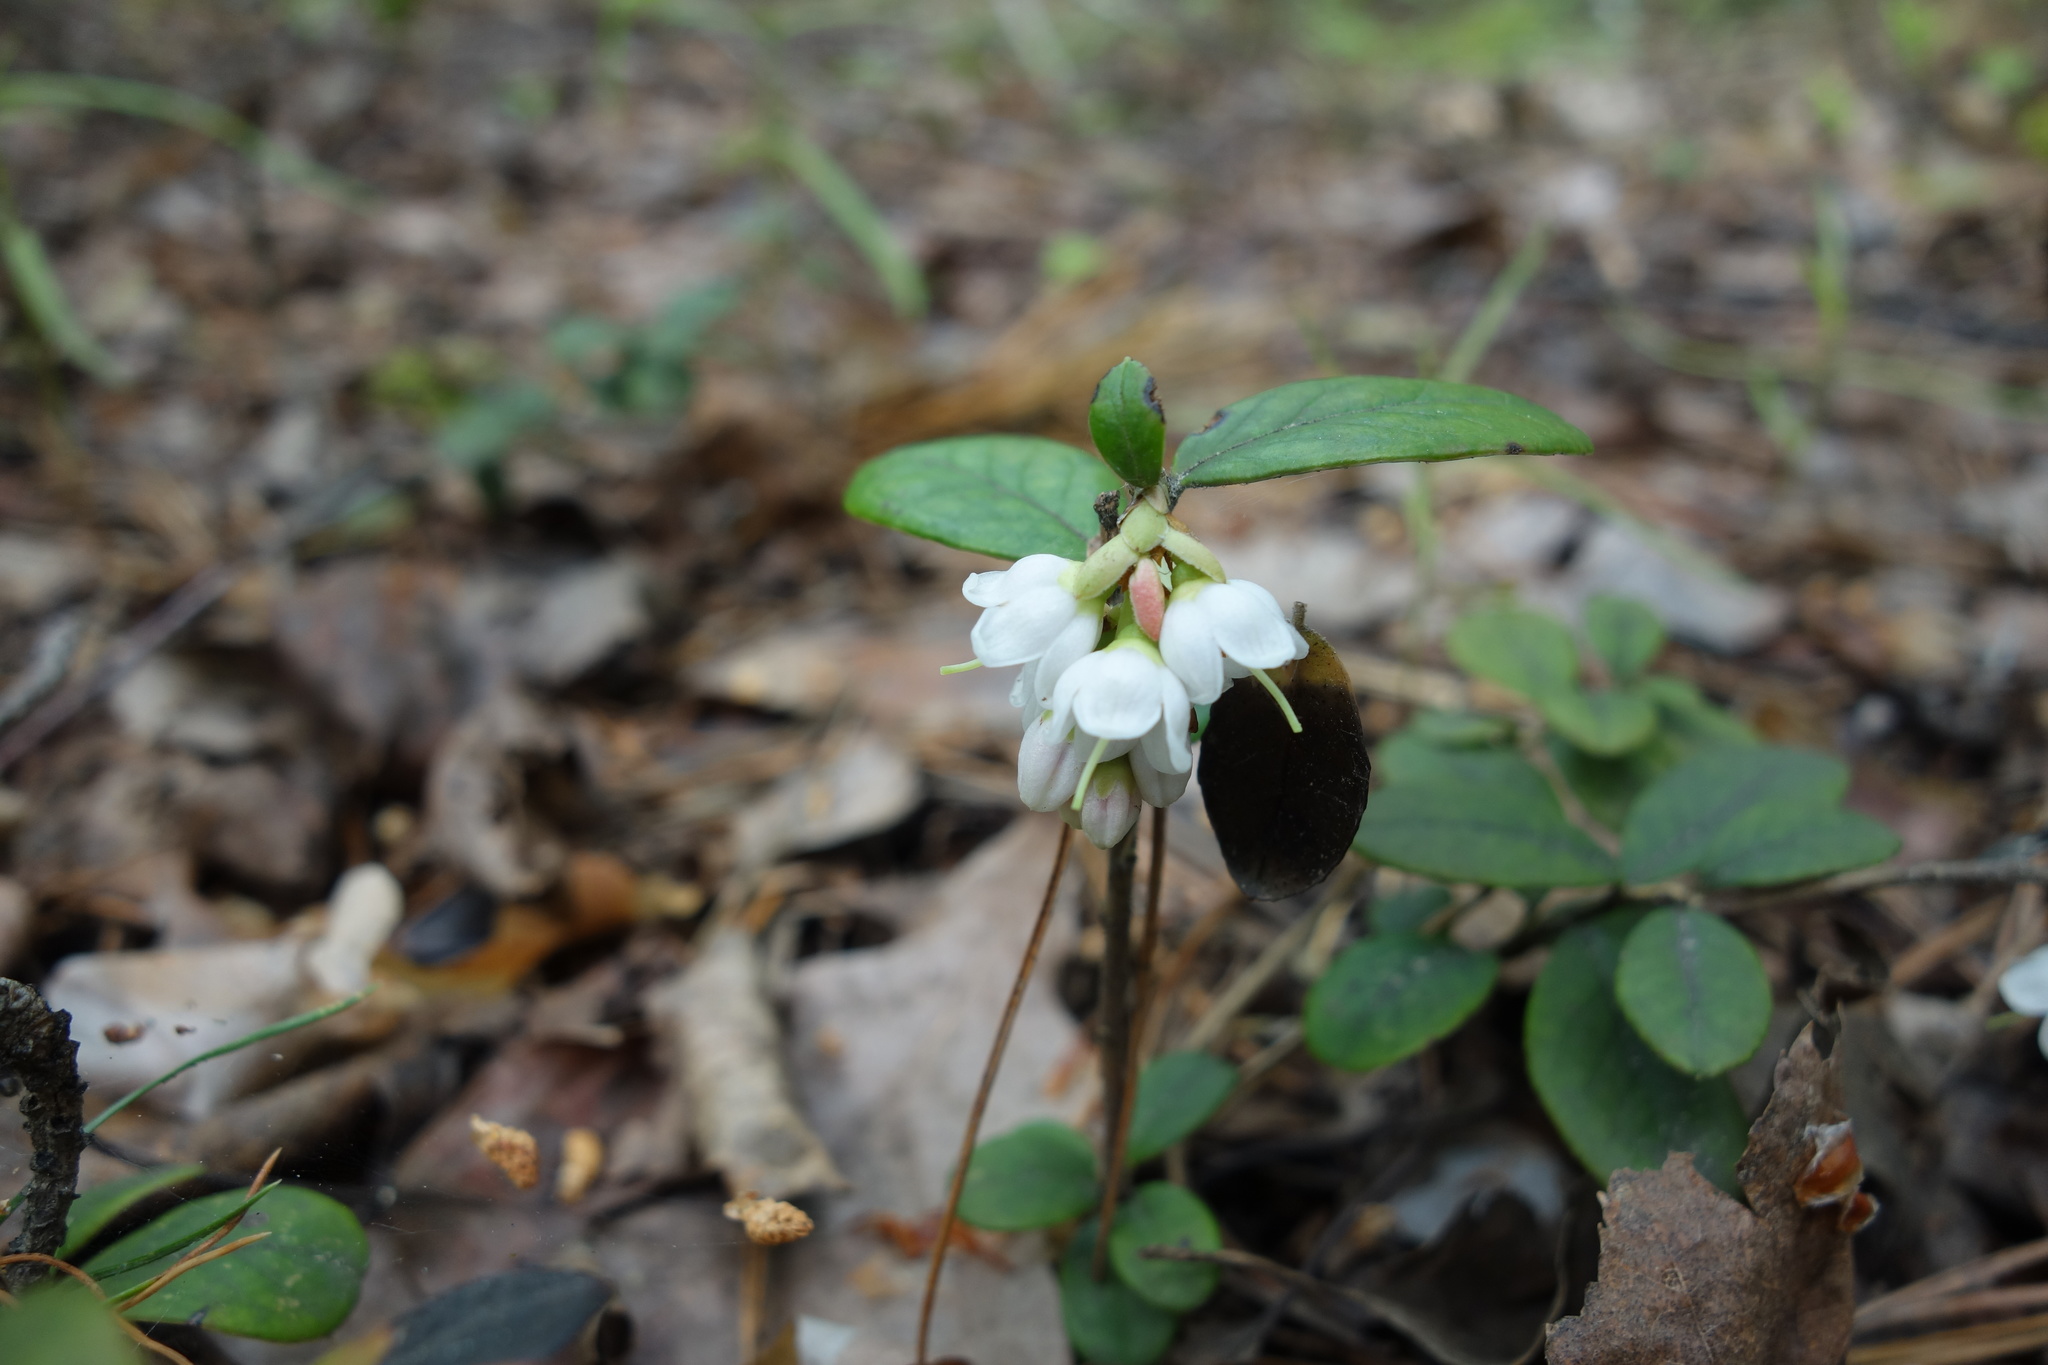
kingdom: Plantae
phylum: Tracheophyta
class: Magnoliopsida
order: Ericales
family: Ericaceae
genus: Vaccinium
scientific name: Vaccinium vitis-idaea
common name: Cowberry
